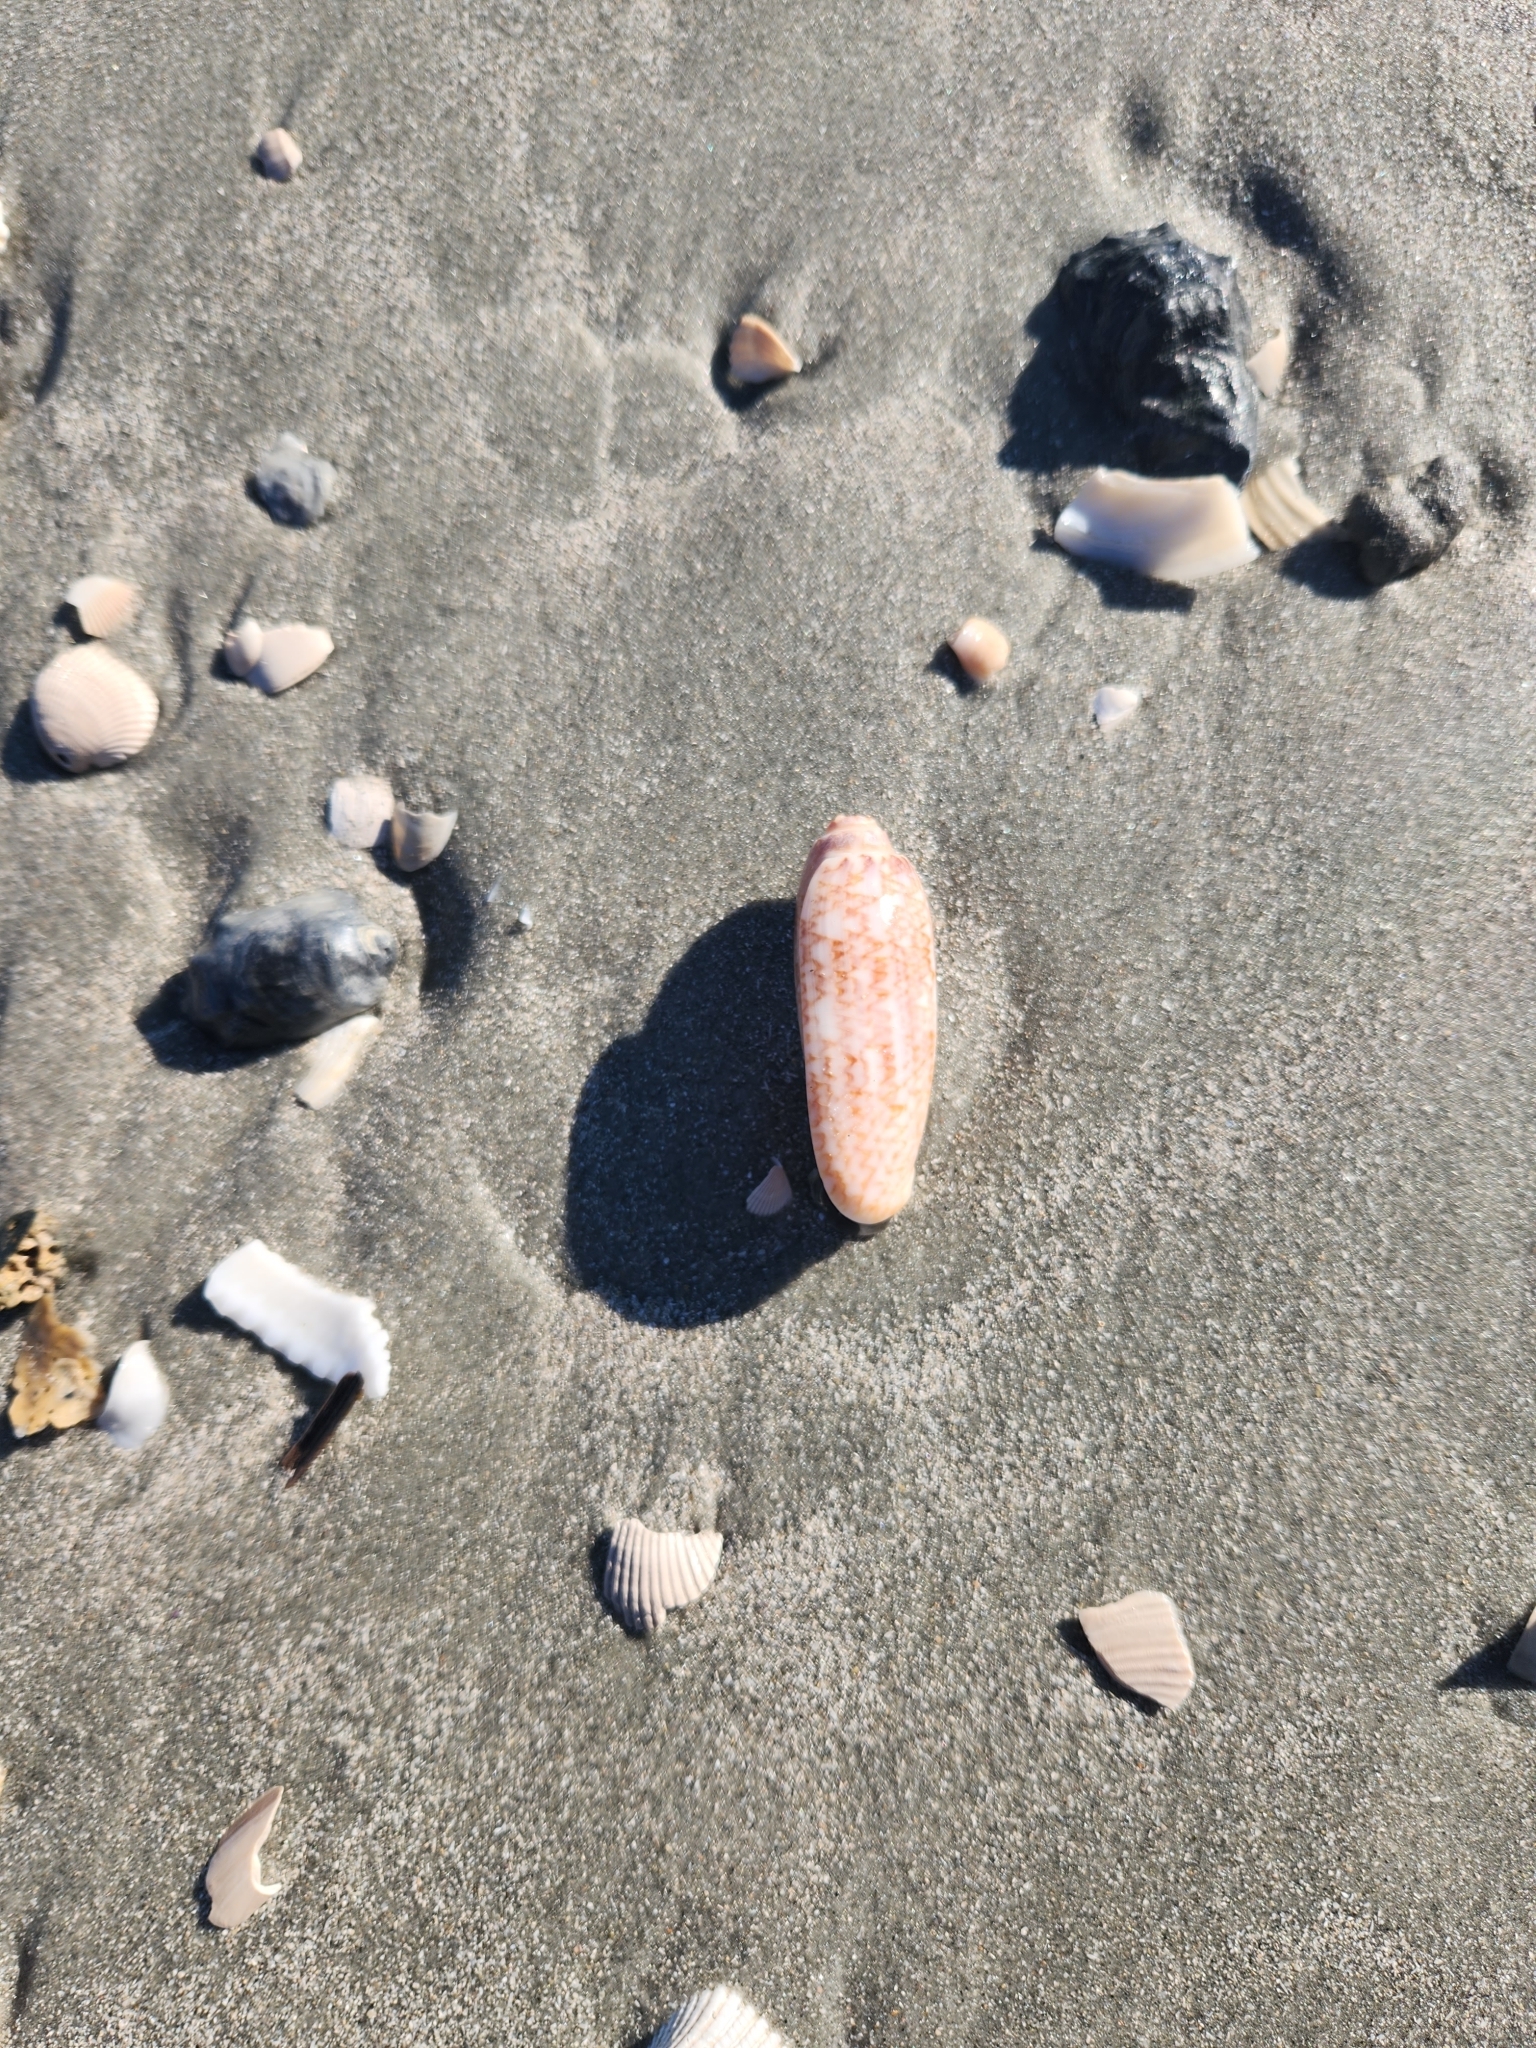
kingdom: Animalia
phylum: Mollusca
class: Gastropoda
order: Neogastropoda
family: Olividae
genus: Oliva
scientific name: Oliva sayana
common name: Lettered olive
